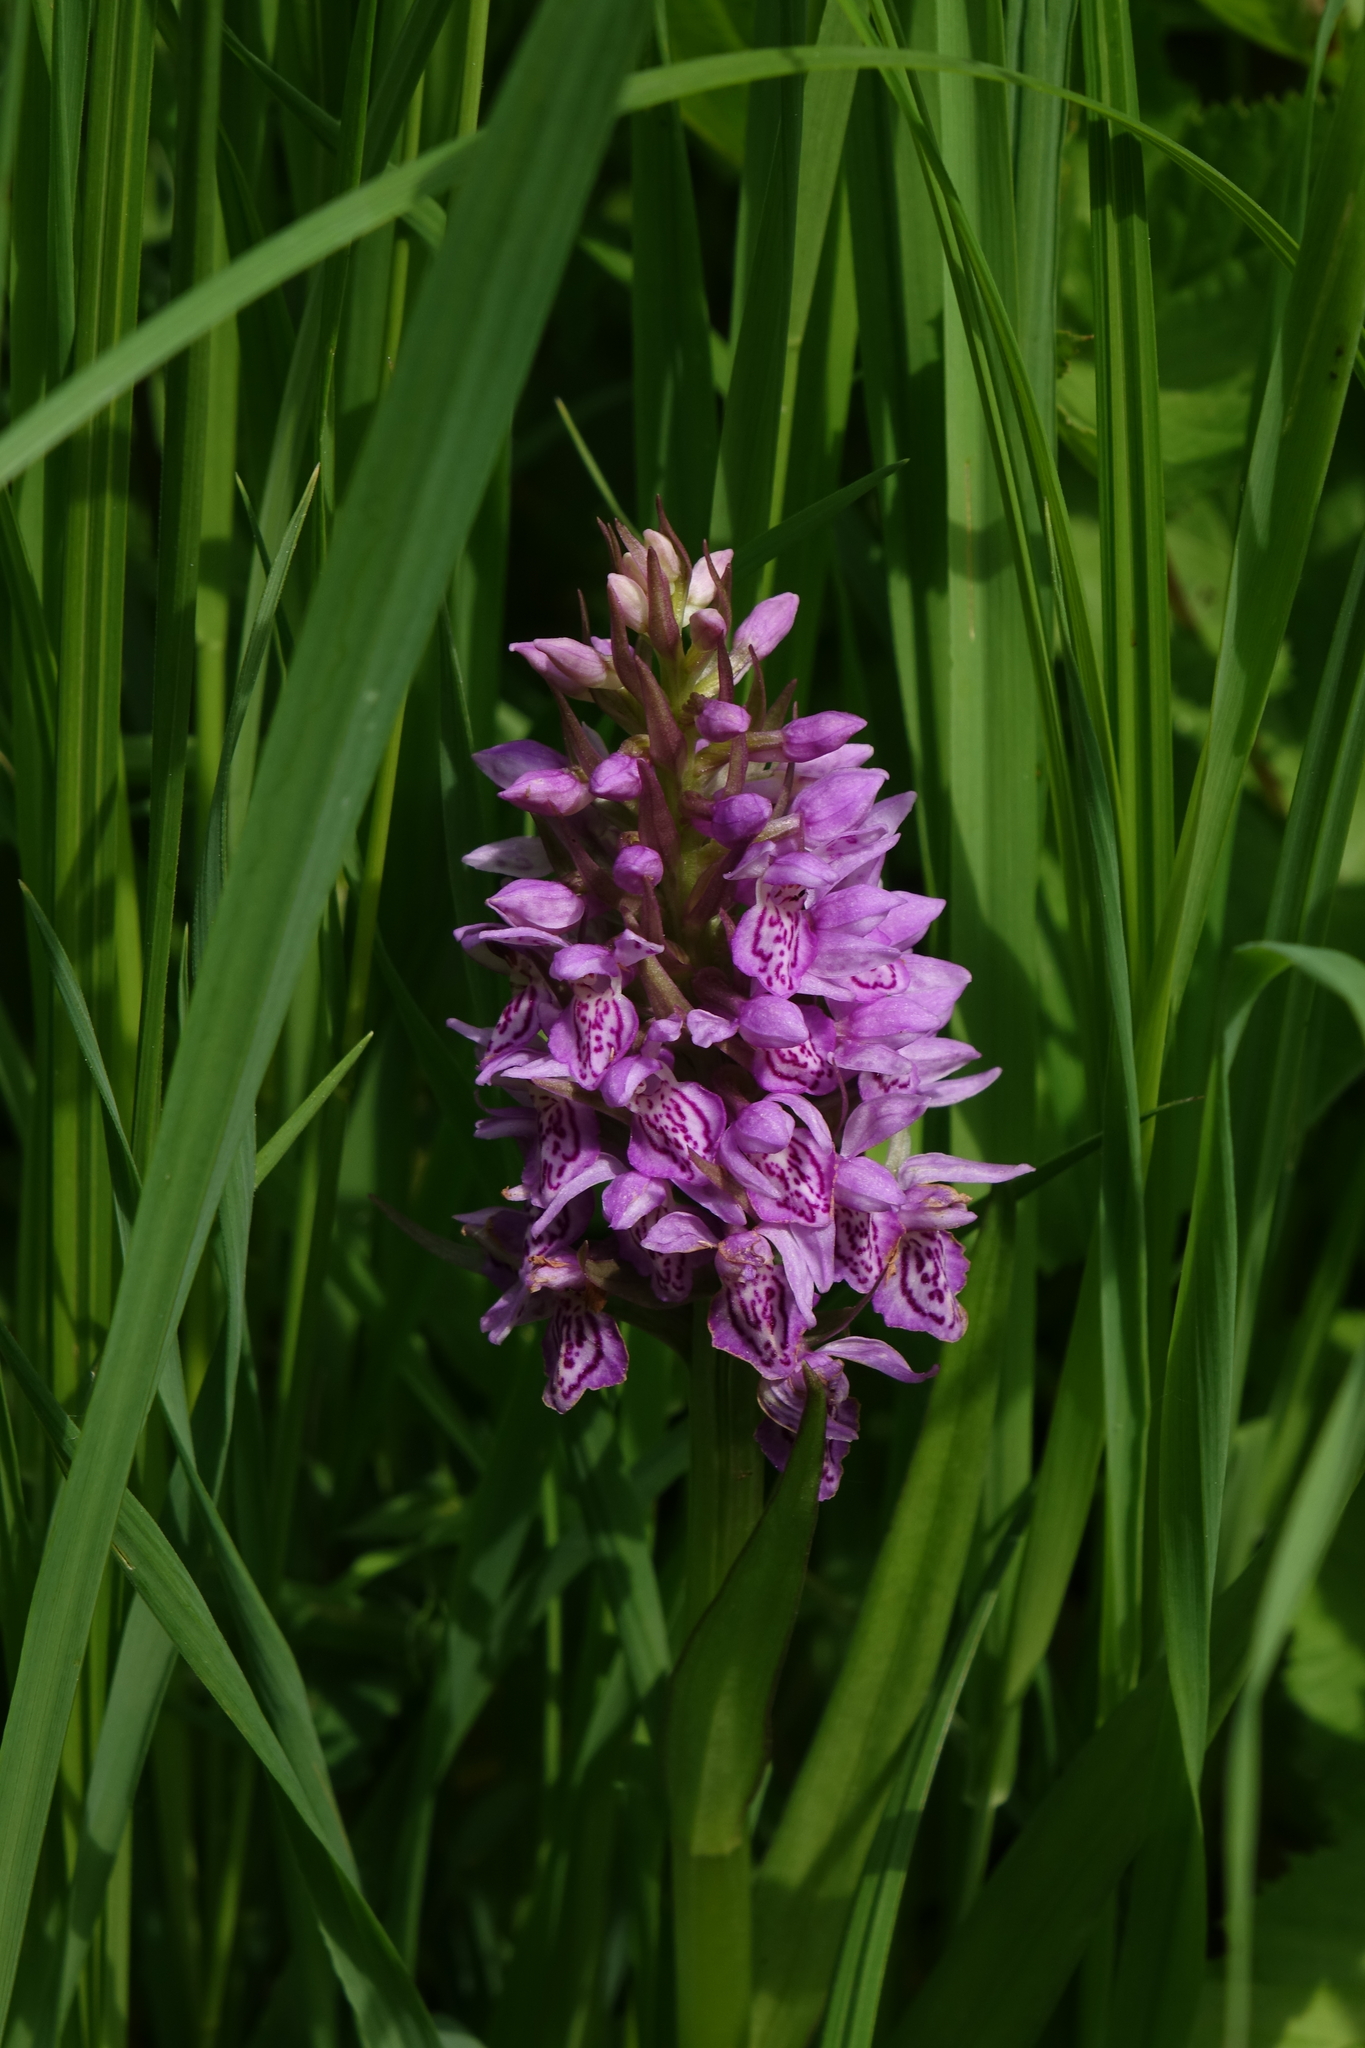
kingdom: Plantae
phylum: Tracheophyta
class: Liliopsida
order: Asparagales
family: Orchidaceae
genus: Dactylorhiza
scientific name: Dactylorhiza sibirica
